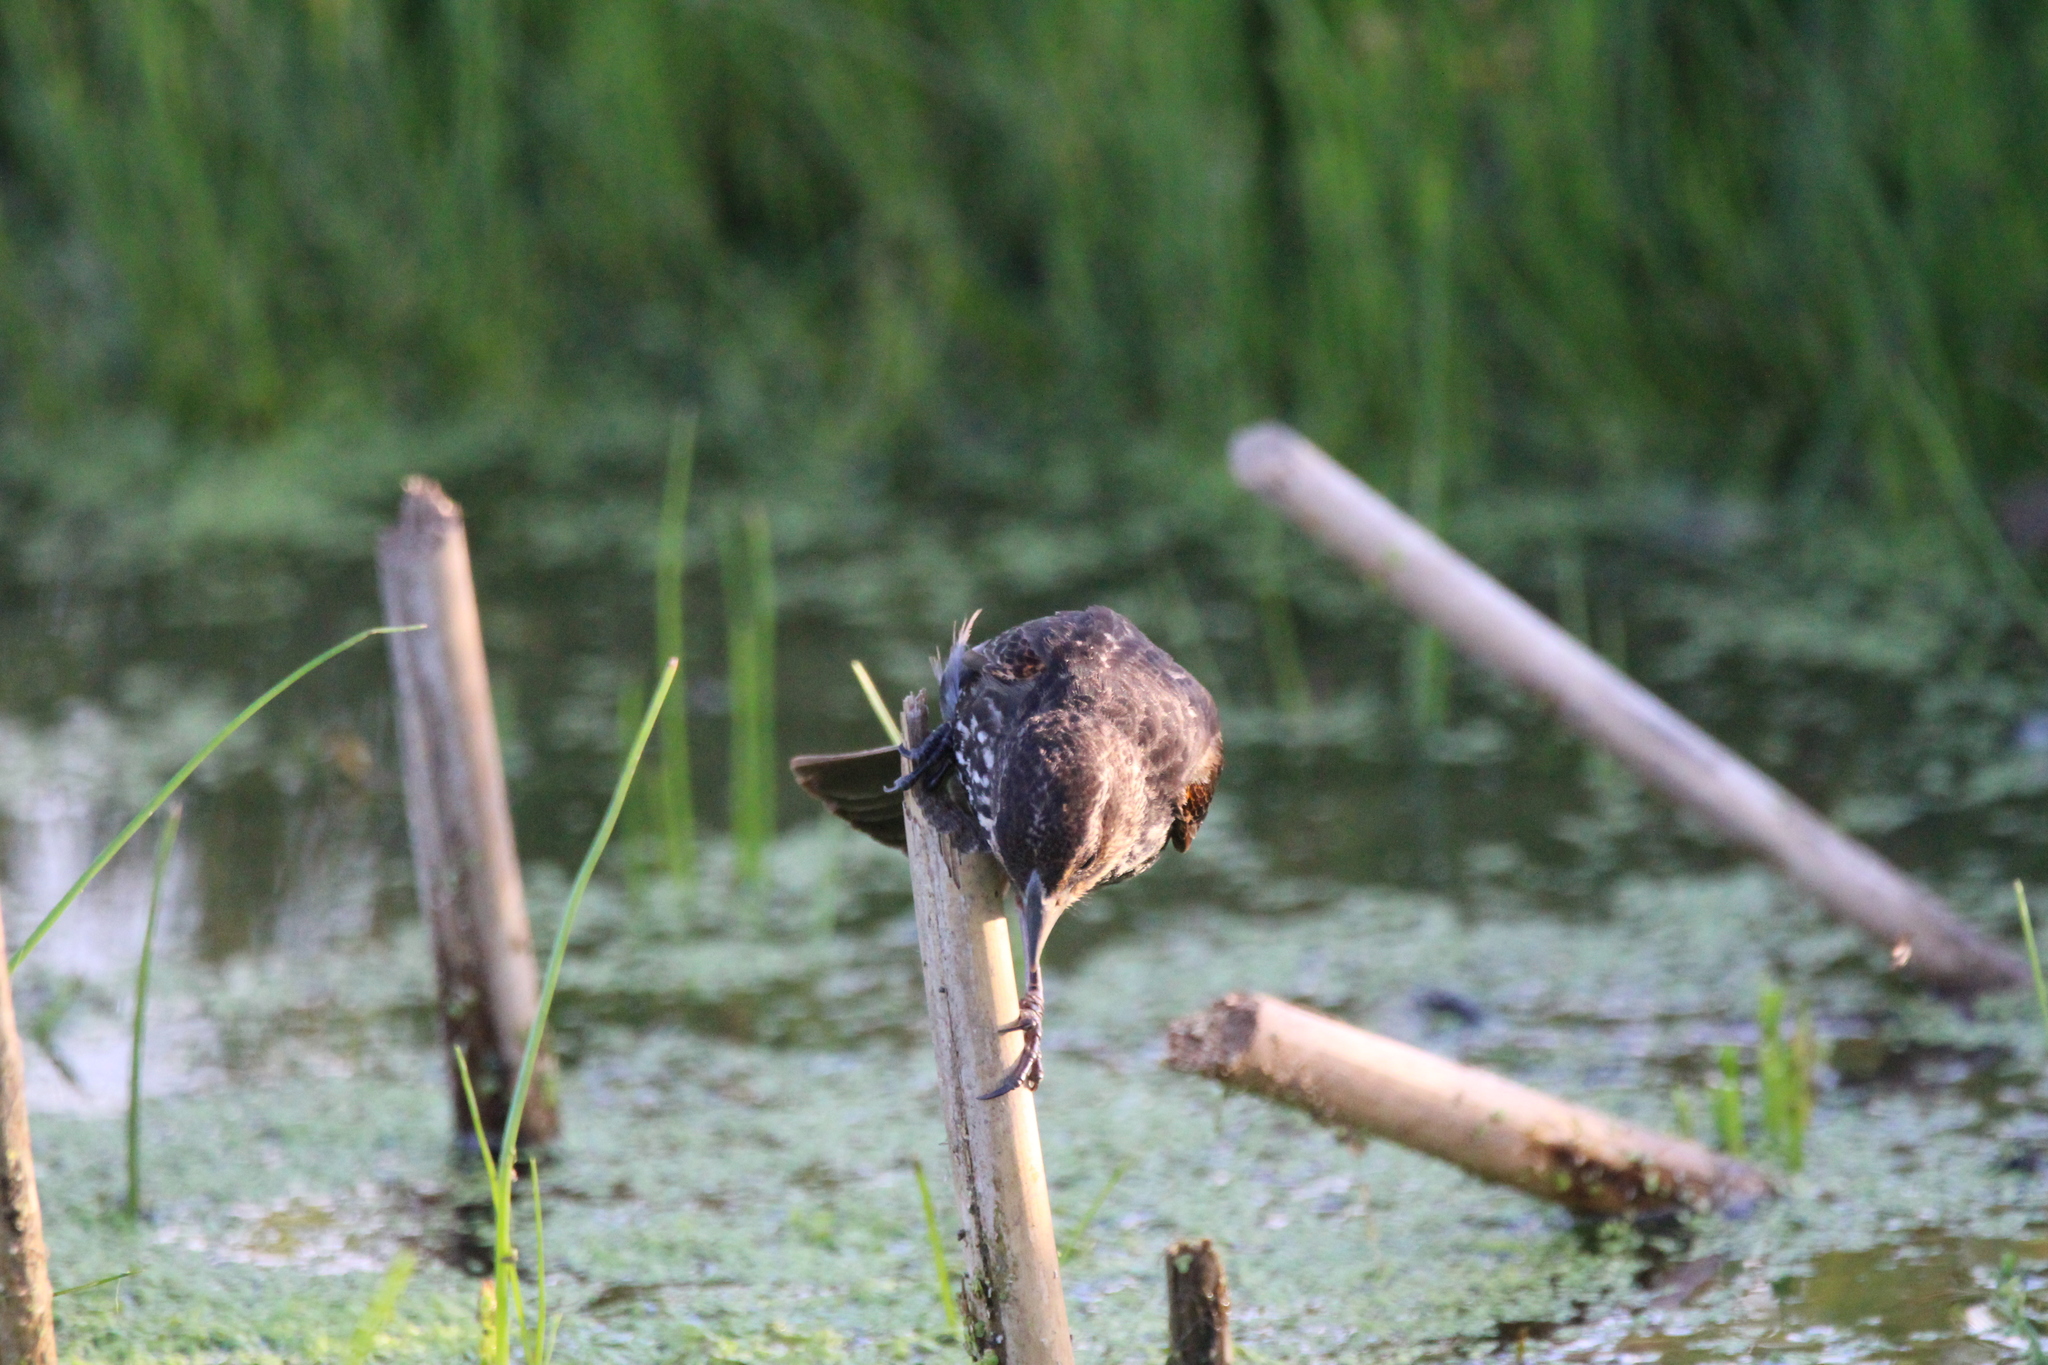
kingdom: Animalia
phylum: Chordata
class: Aves
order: Passeriformes
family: Icteridae
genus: Agelaius
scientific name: Agelaius phoeniceus
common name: Red-winged blackbird
